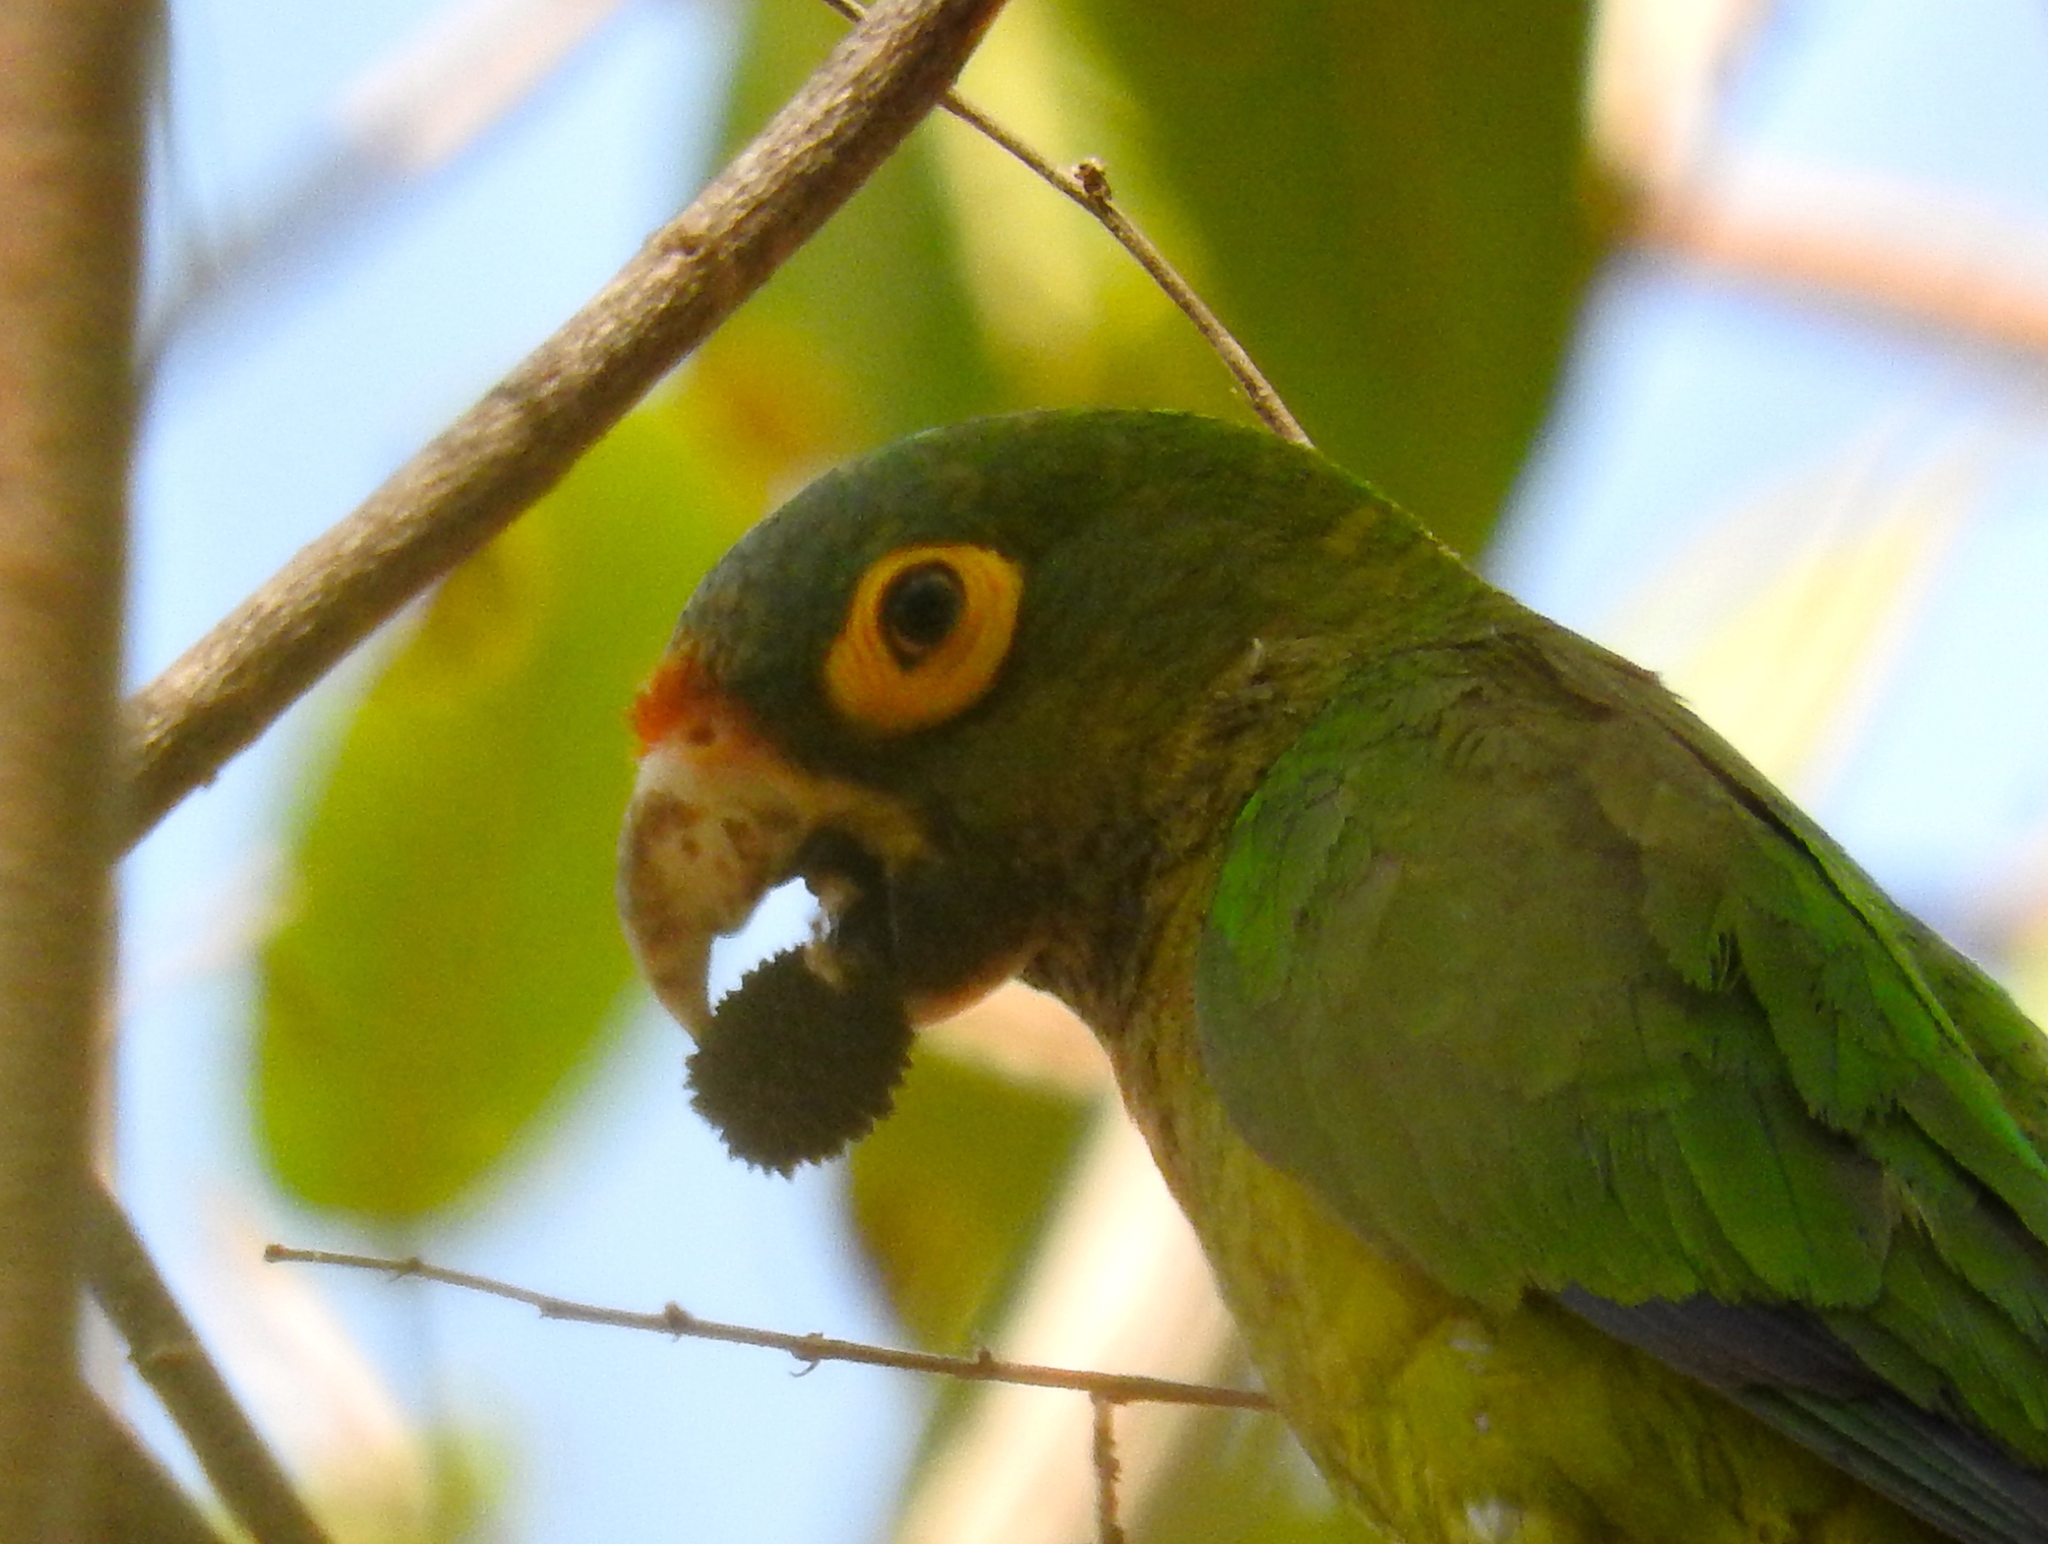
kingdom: Animalia
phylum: Chordata
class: Aves
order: Psittaciformes
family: Psittacidae
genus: Aratinga
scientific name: Aratinga canicularis
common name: Orange-fronted parakeet
